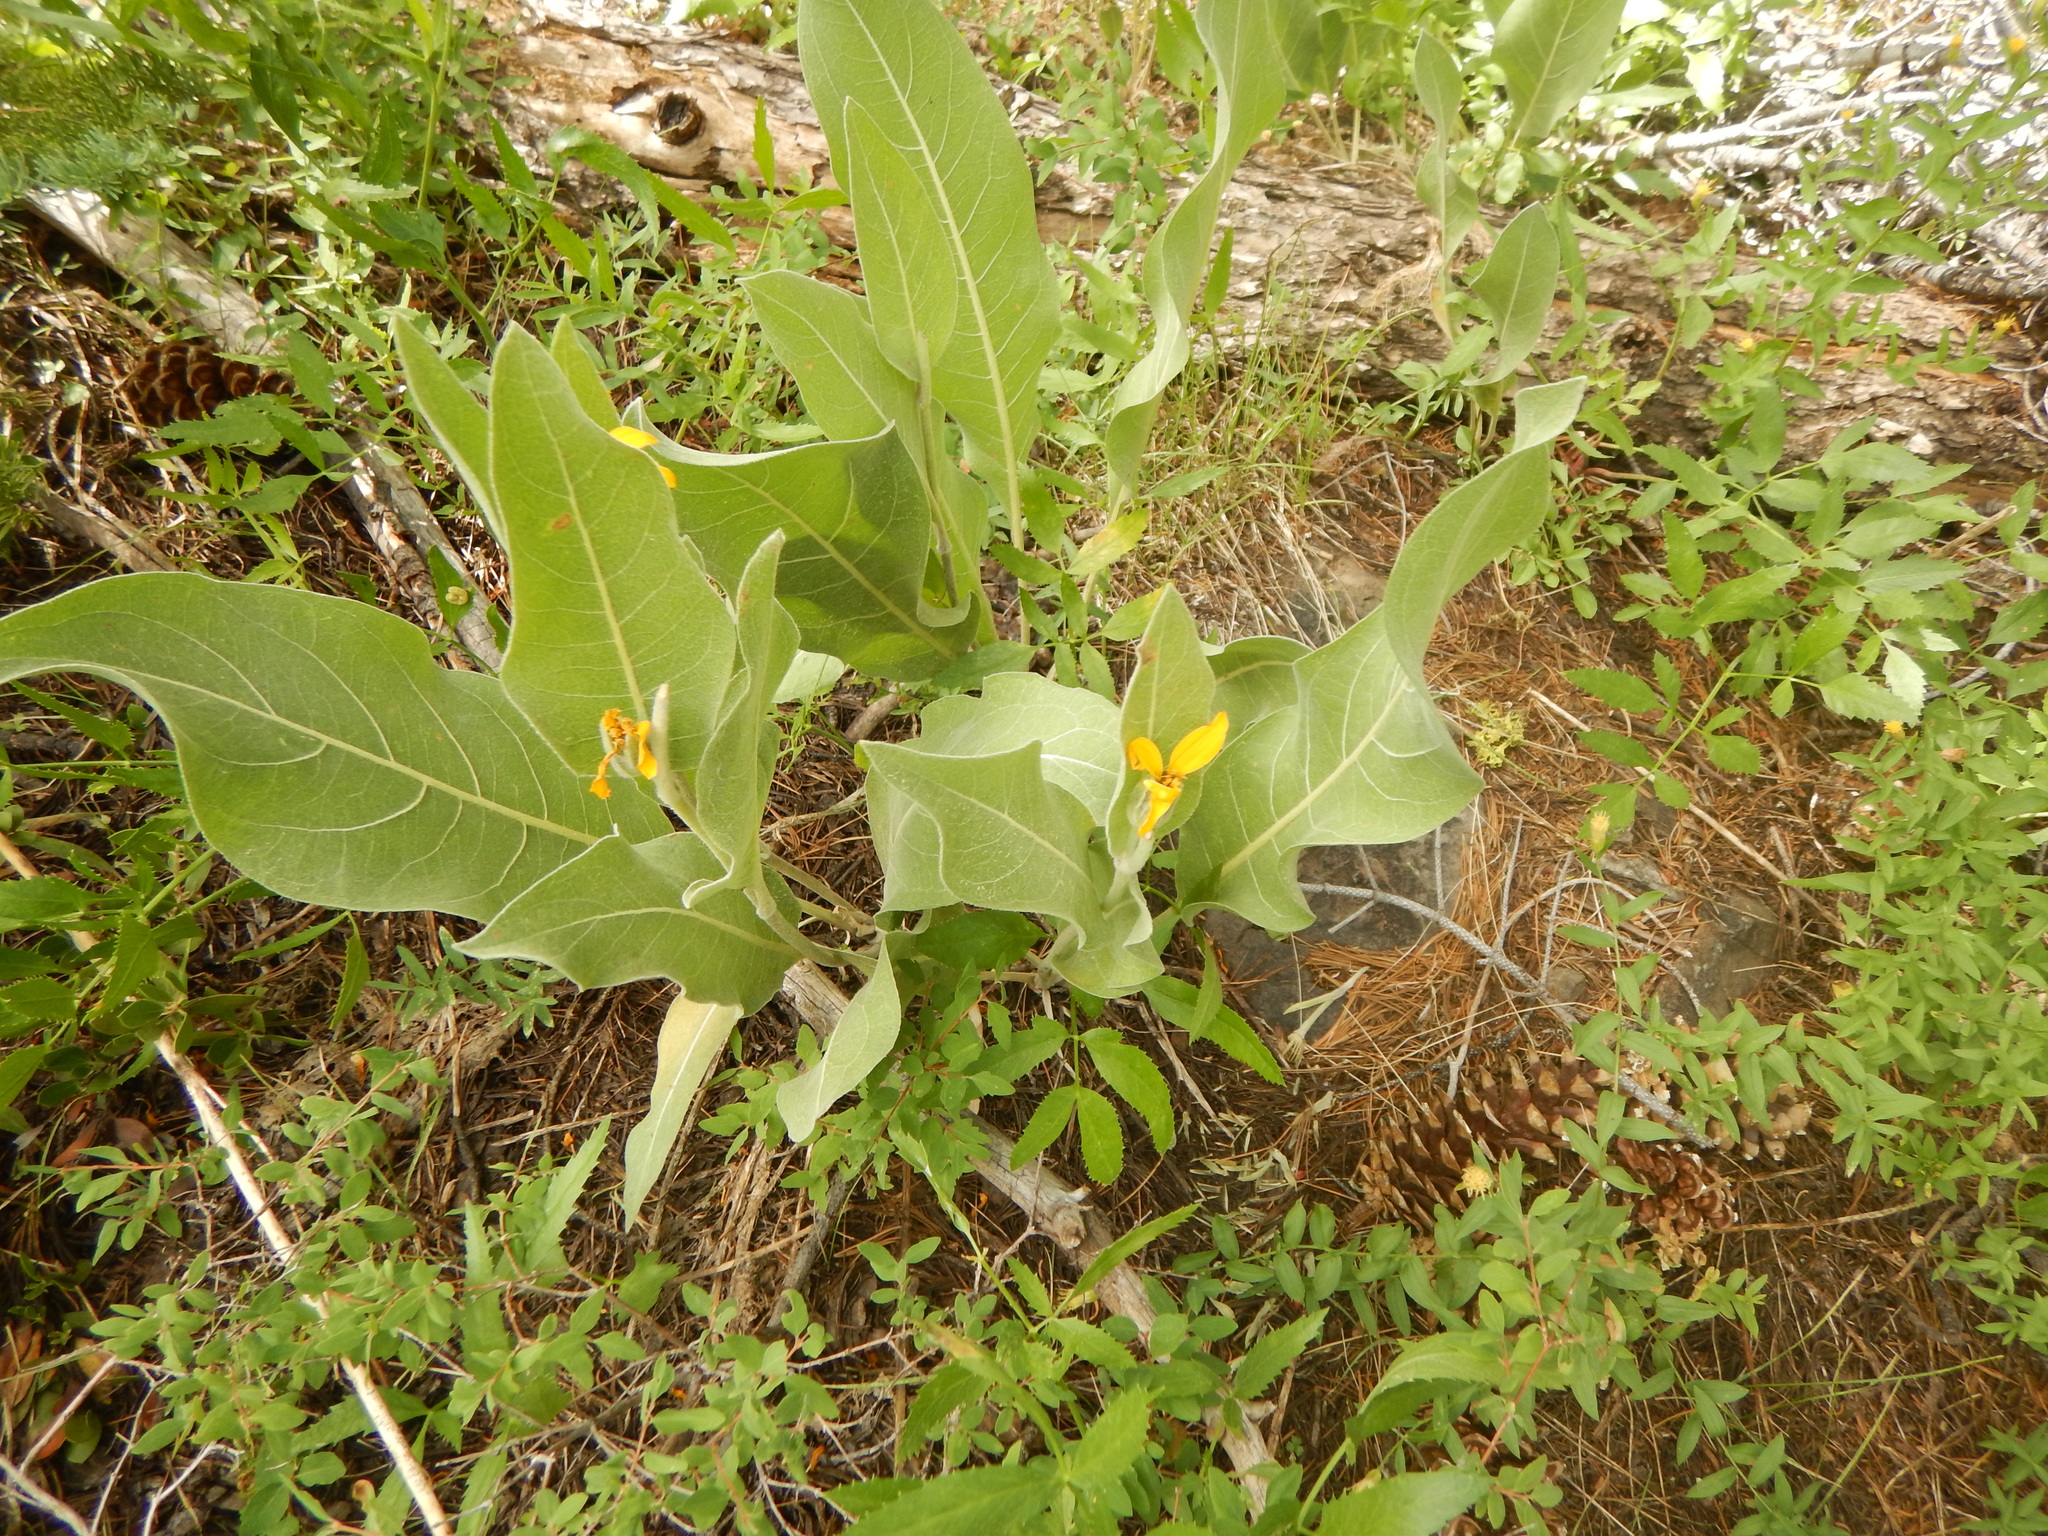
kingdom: Plantae
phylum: Tracheophyta
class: Magnoliopsida
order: Asterales
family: Asteraceae
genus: Wyethia
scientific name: Wyethia mollis
